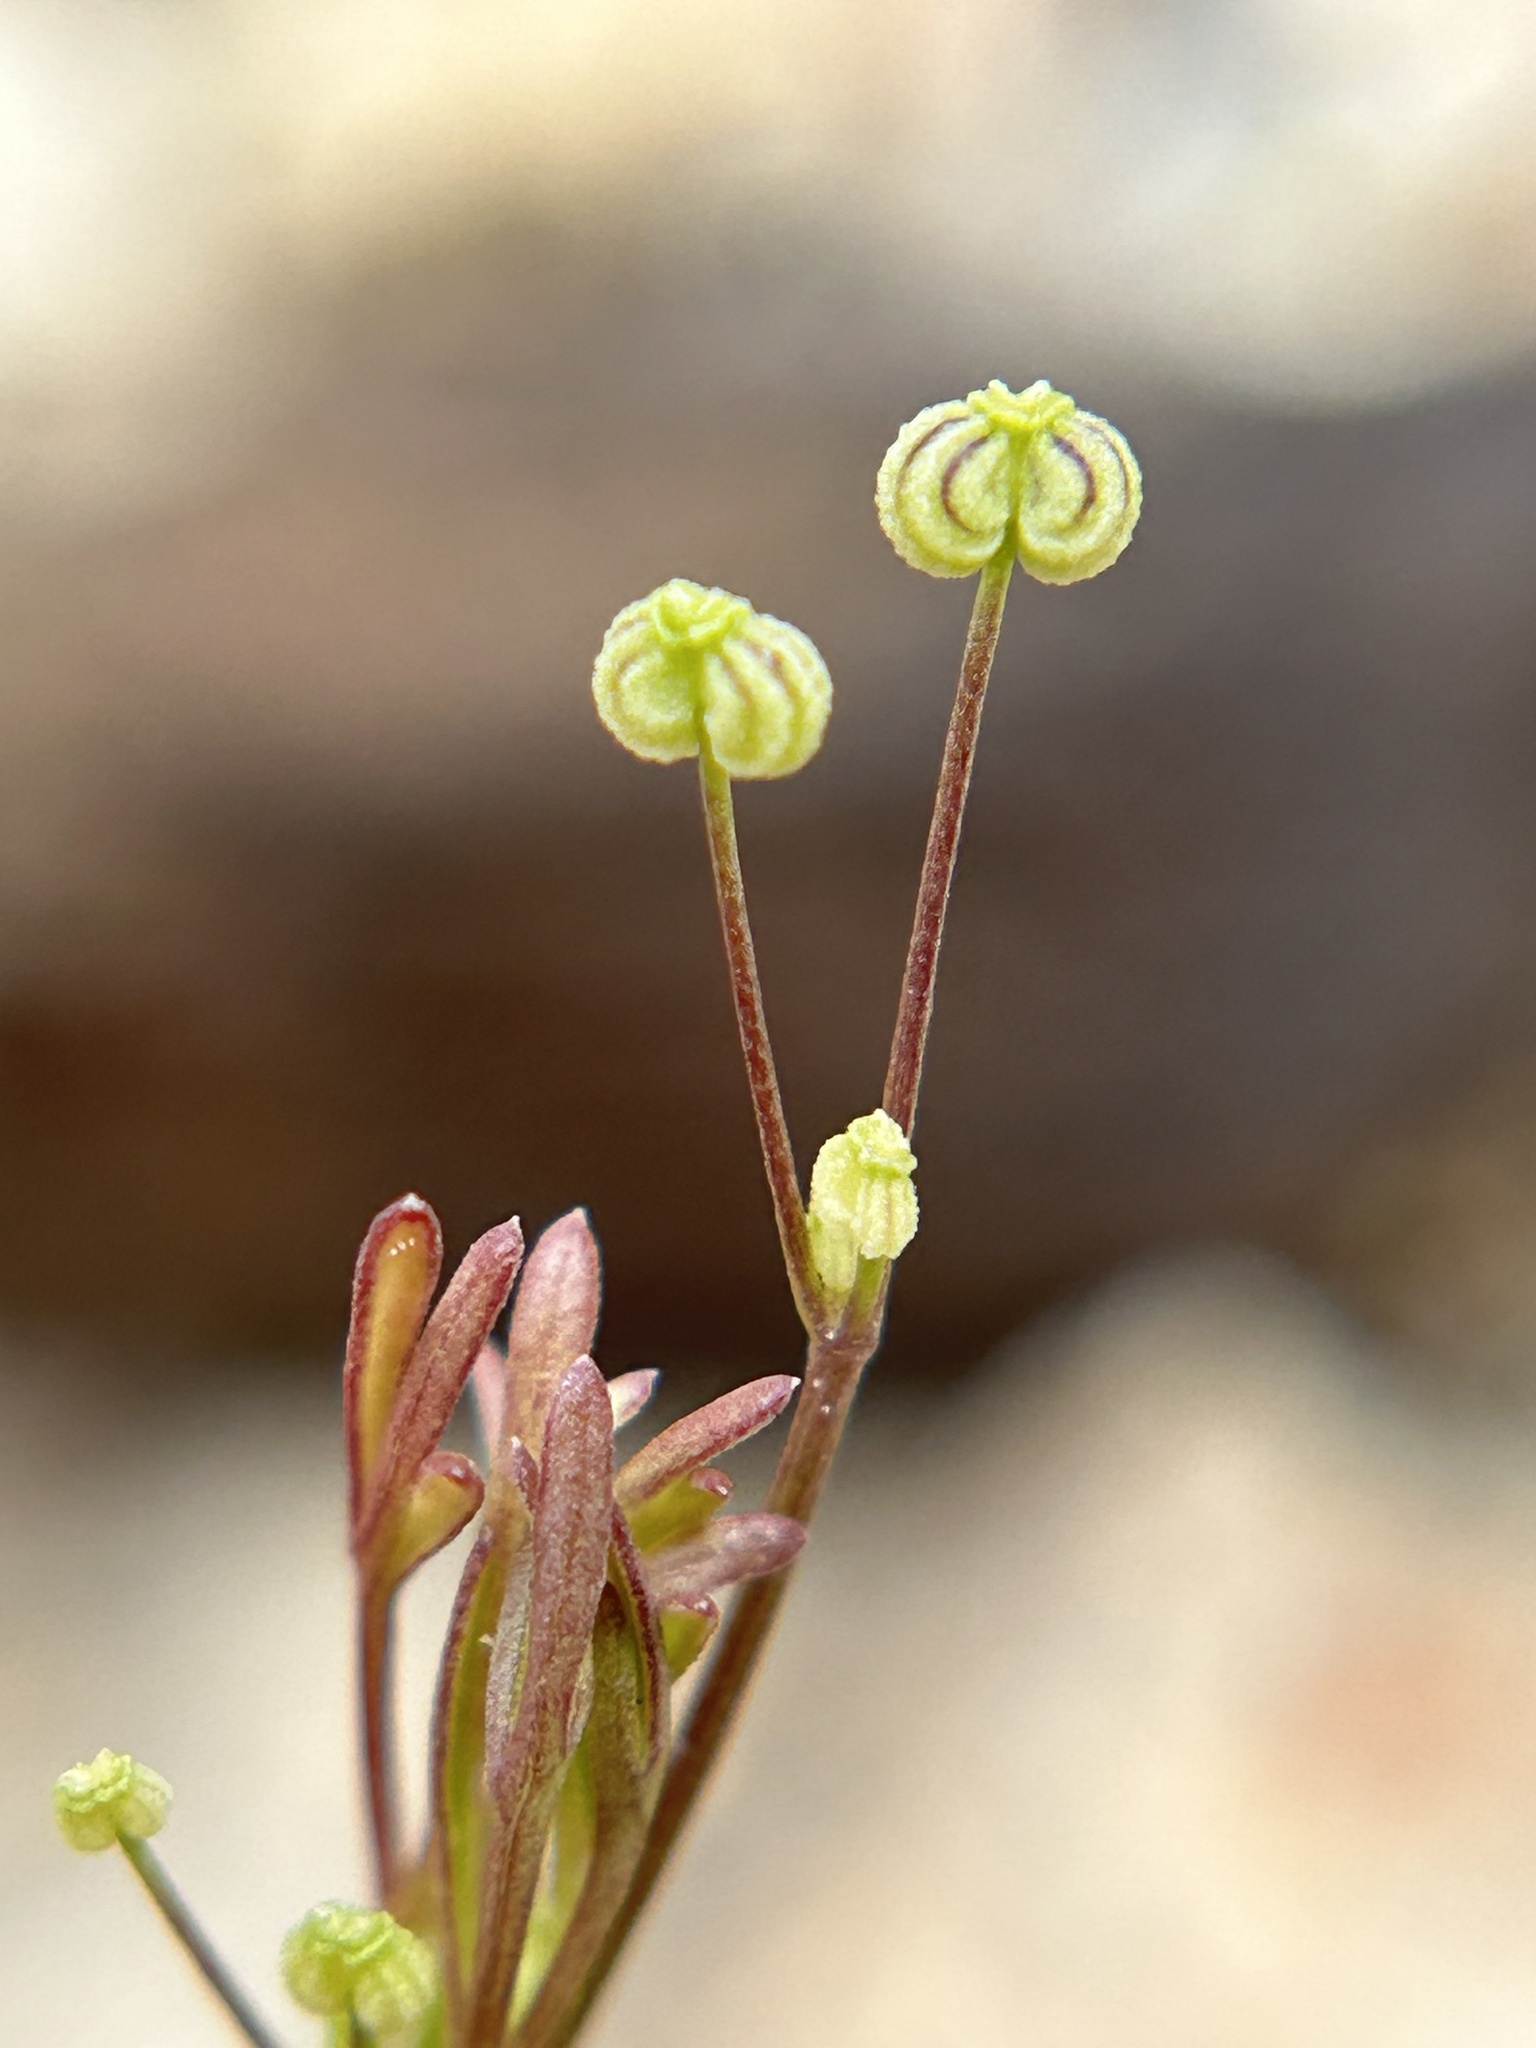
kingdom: Plantae
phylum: Tracheophyta
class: Magnoliopsida
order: Apiales
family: Apiaceae
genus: Apiastrum
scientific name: Apiastrum angustifolium
